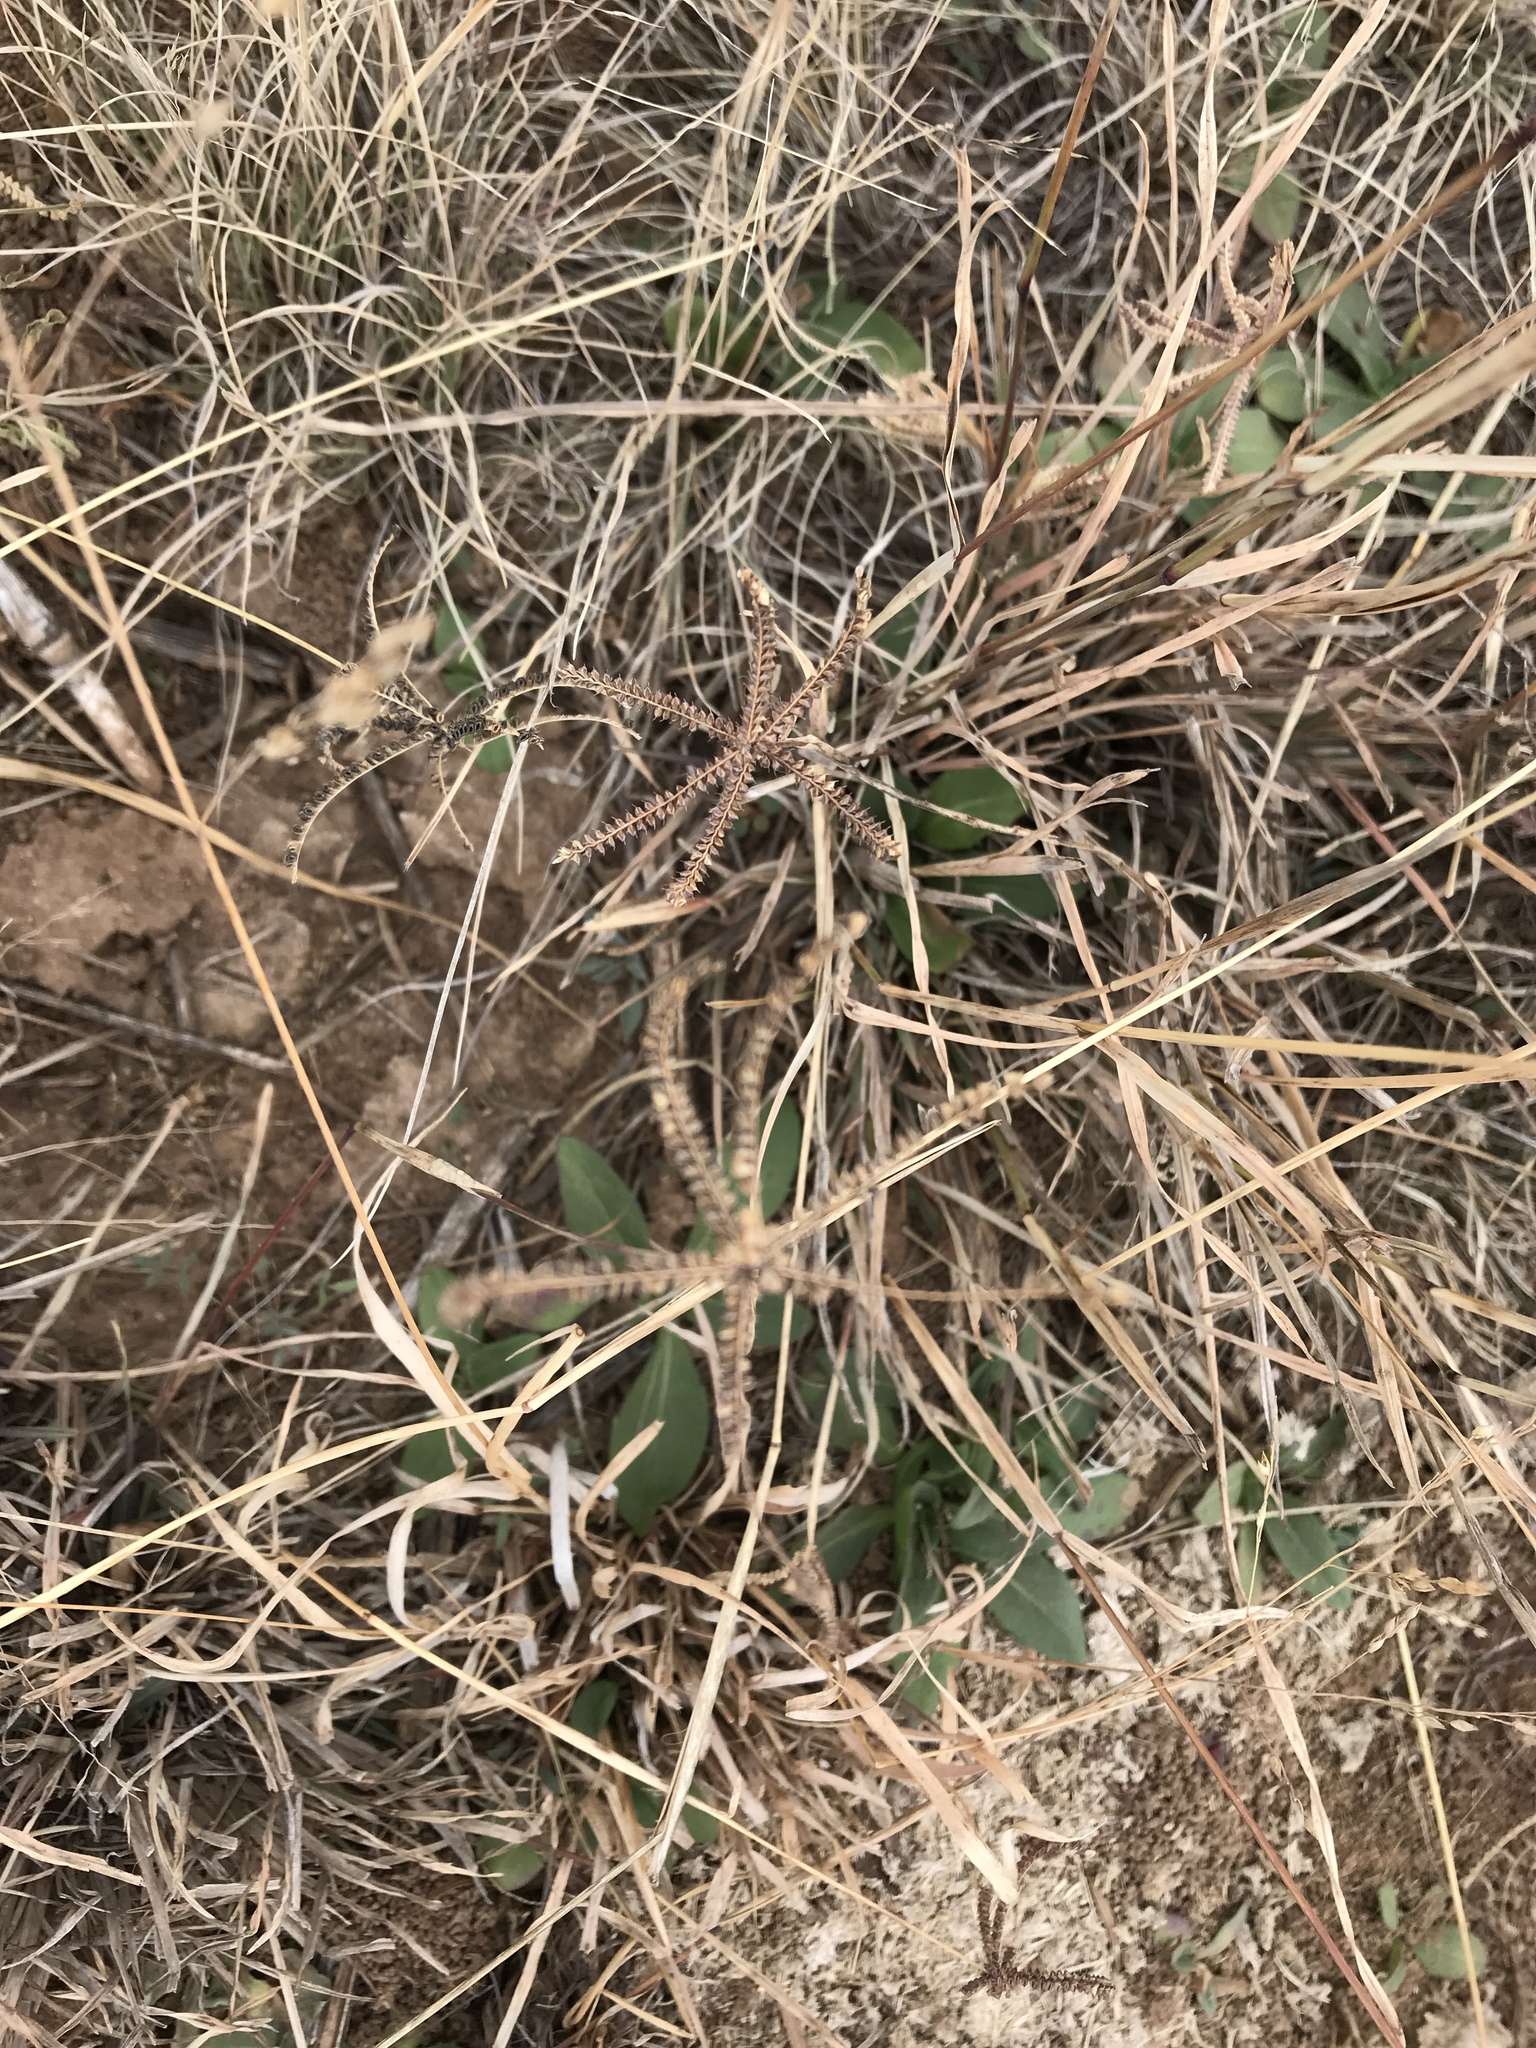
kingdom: Plantae
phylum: Tracheophyta
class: Liliopsida
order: Poales
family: Poaceae
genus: Chloris
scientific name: Chloris cucullata
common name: Hooded windmill grass
